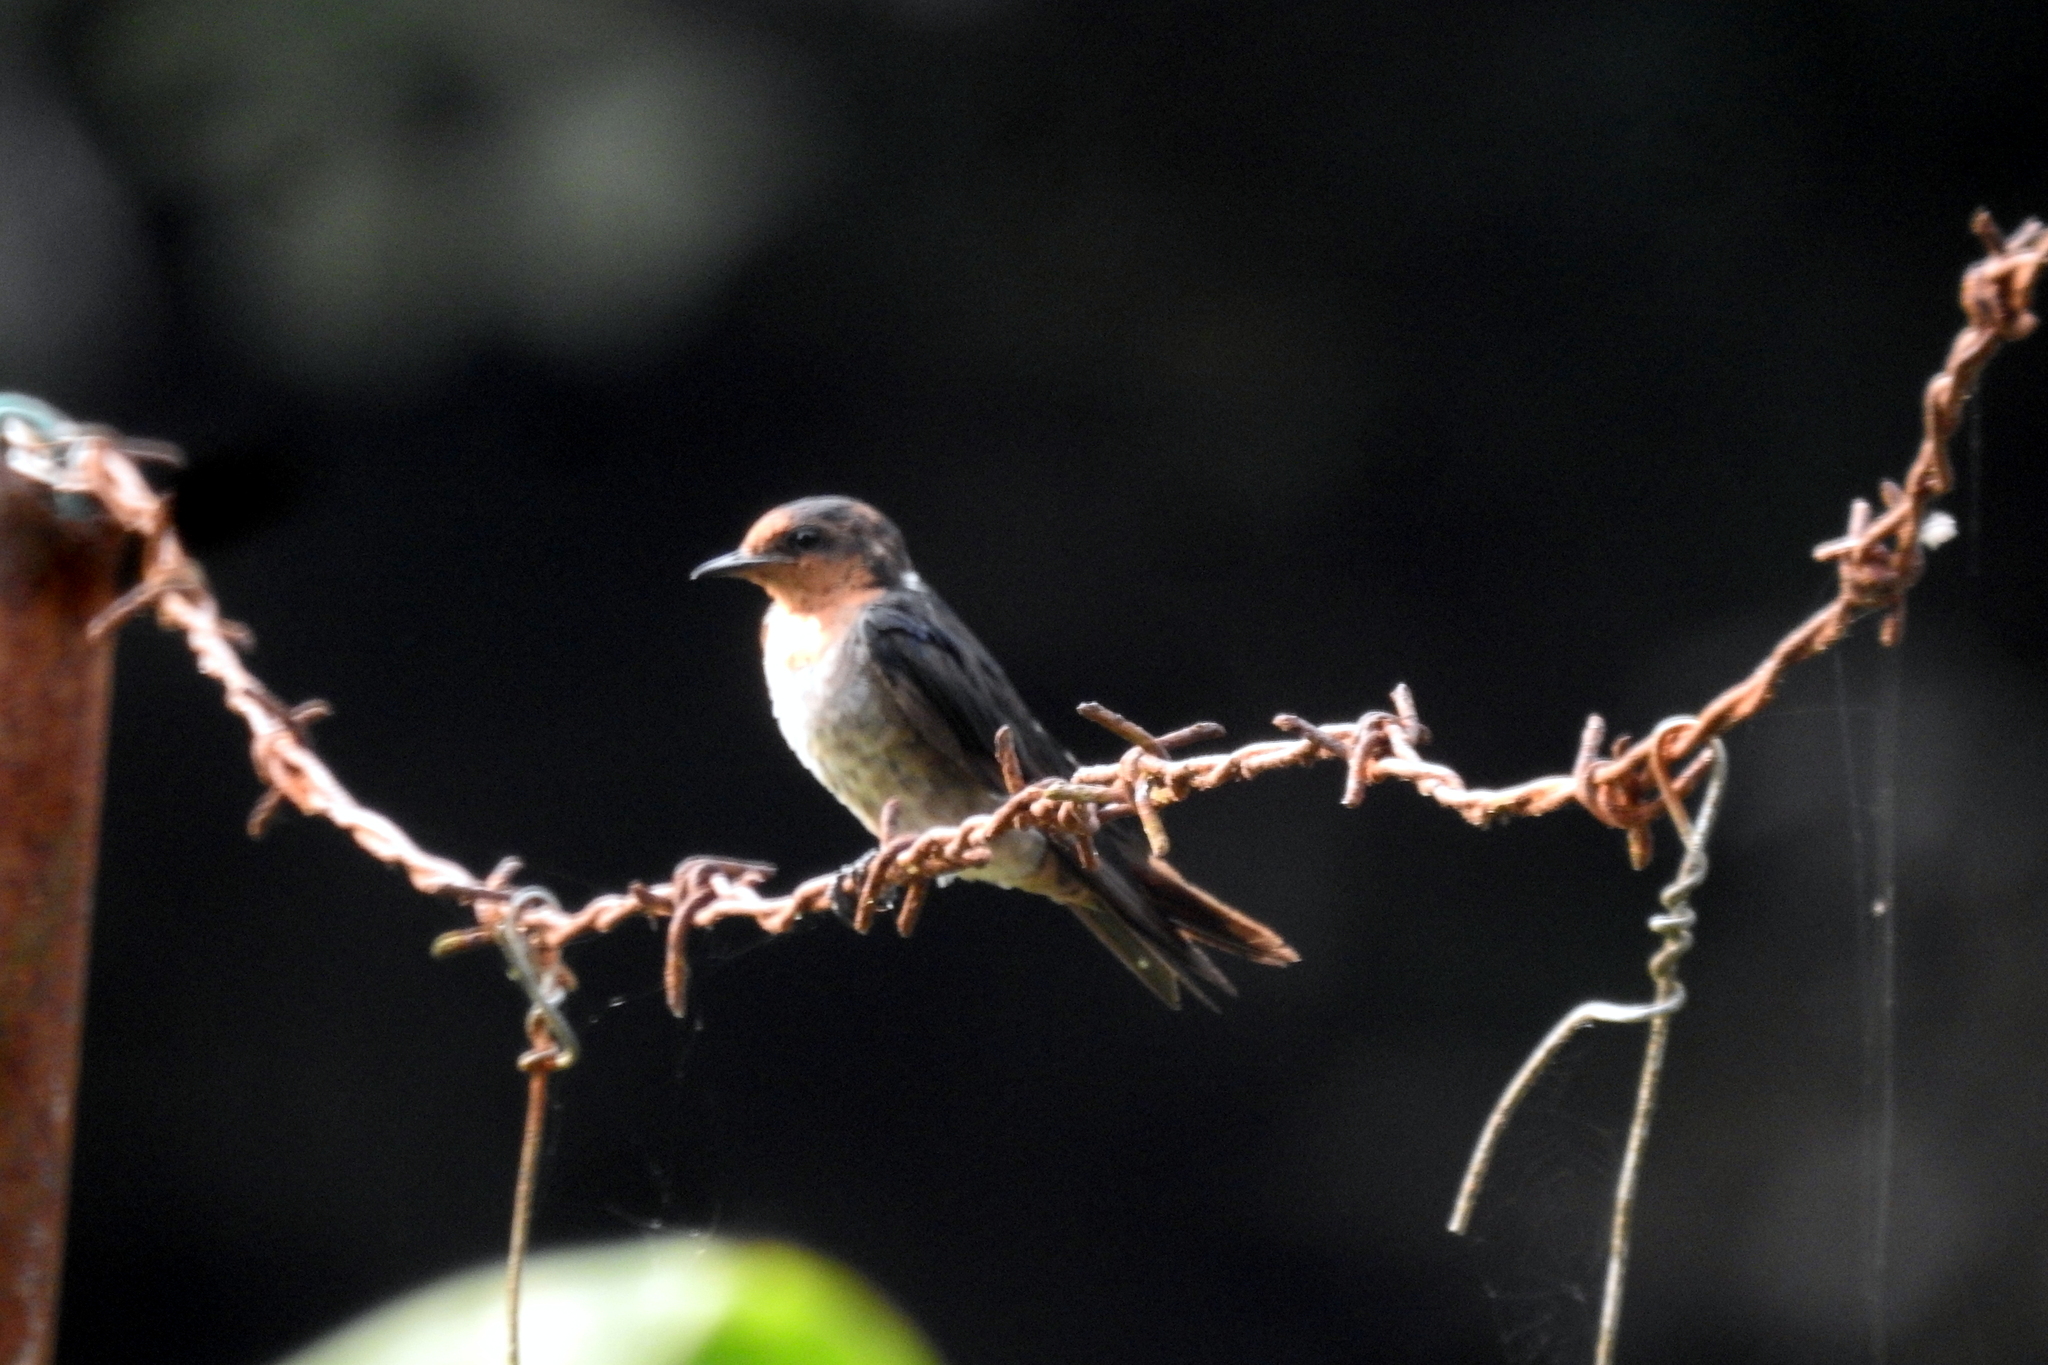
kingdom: Animalia
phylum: Chordata
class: Aves
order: Passeriformes
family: Hirundinidae
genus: Hirundo
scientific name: Hirundo tahitica
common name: Pacific swallow
